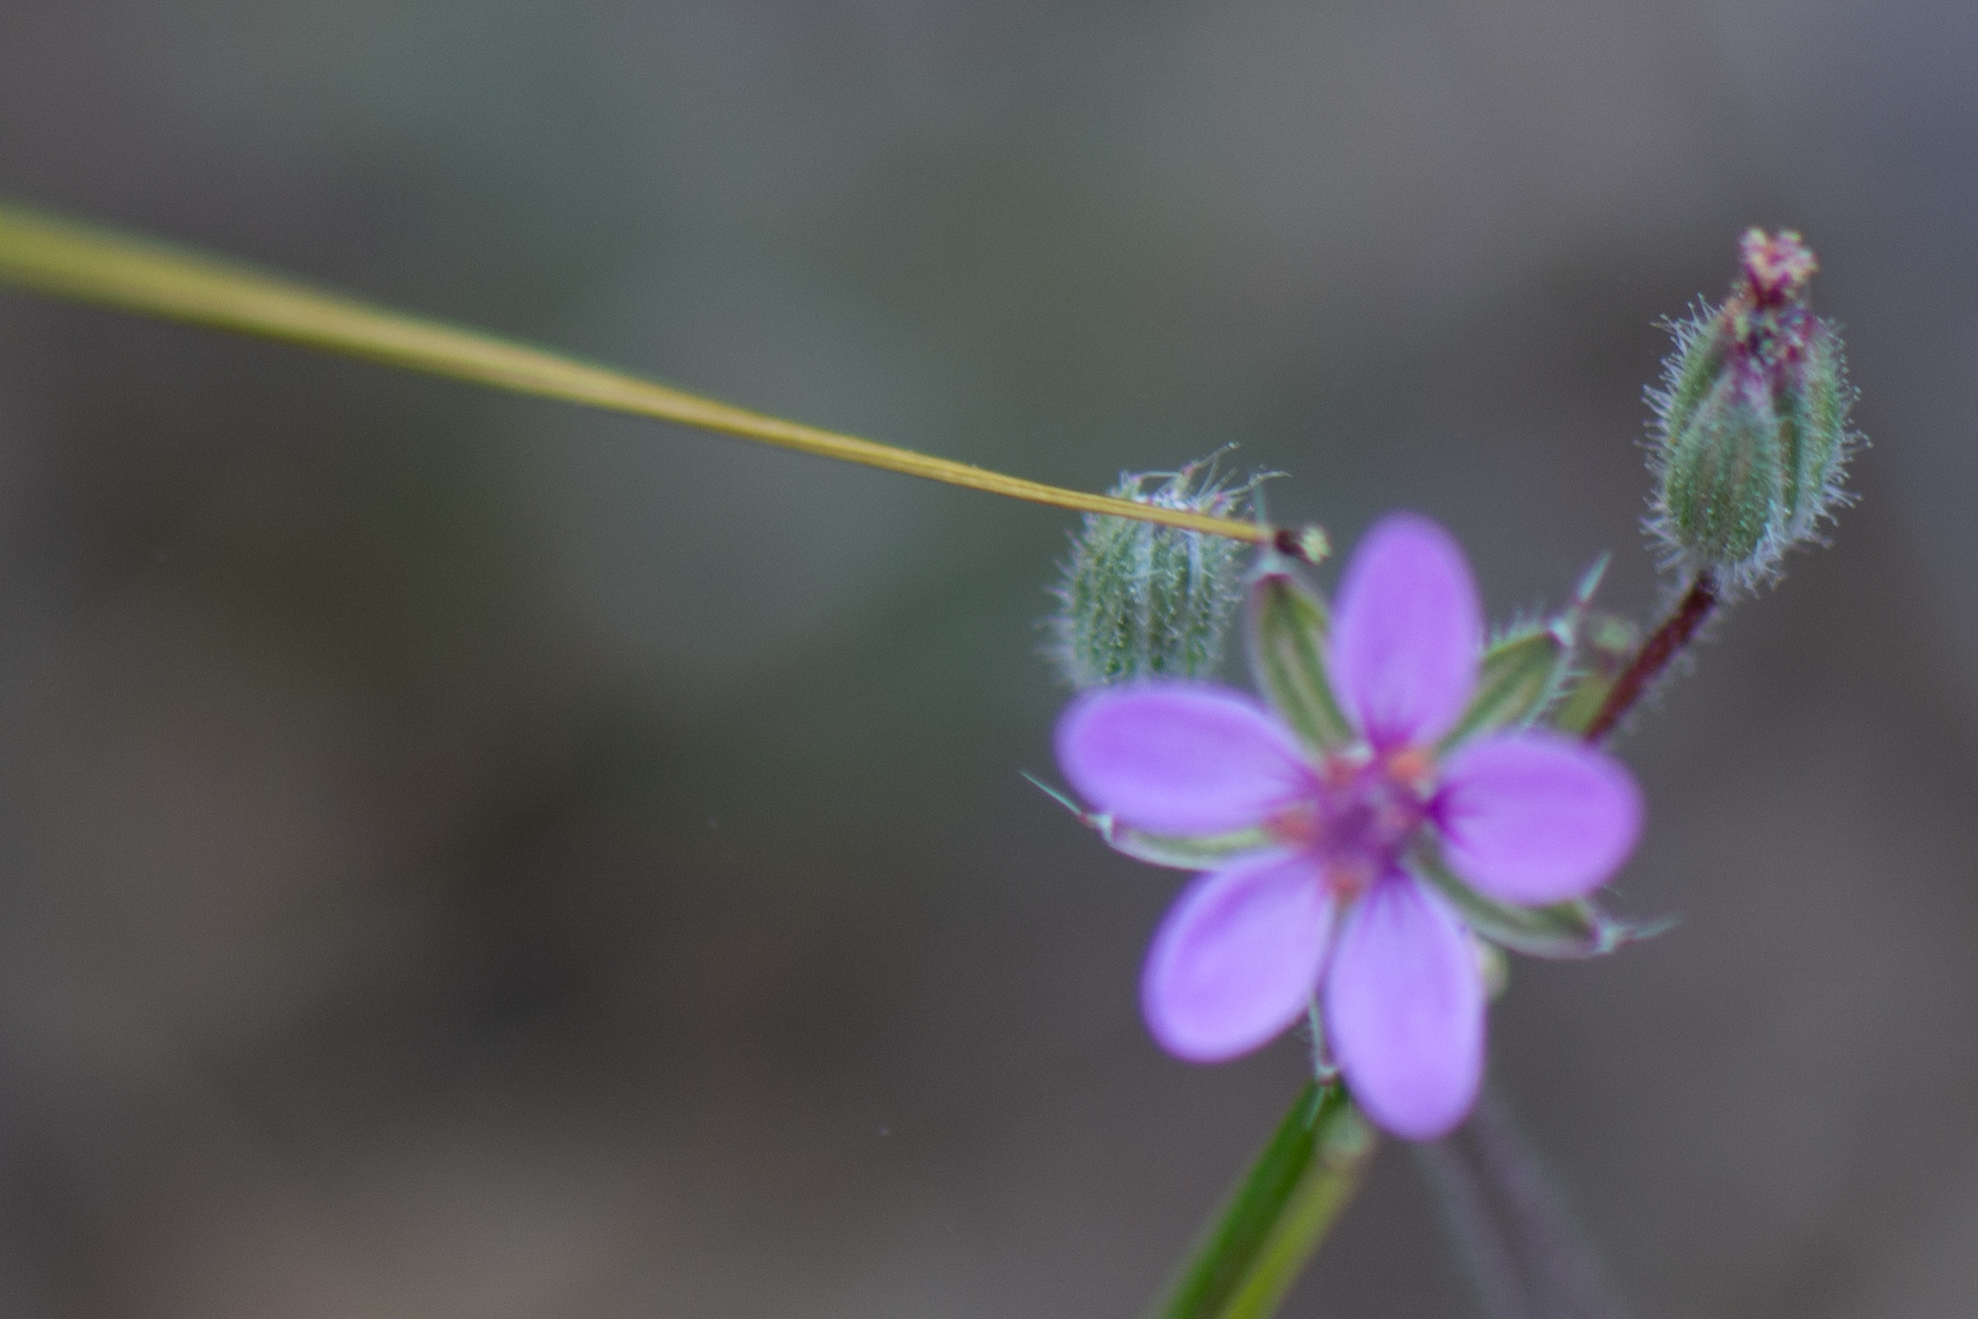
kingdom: Plantae
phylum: Tracheophyta
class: Magnoliopsida
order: Geraniales
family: Geraniaceae
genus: Erodium
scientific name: Erodium cicutarium
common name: Common stork's-bill
